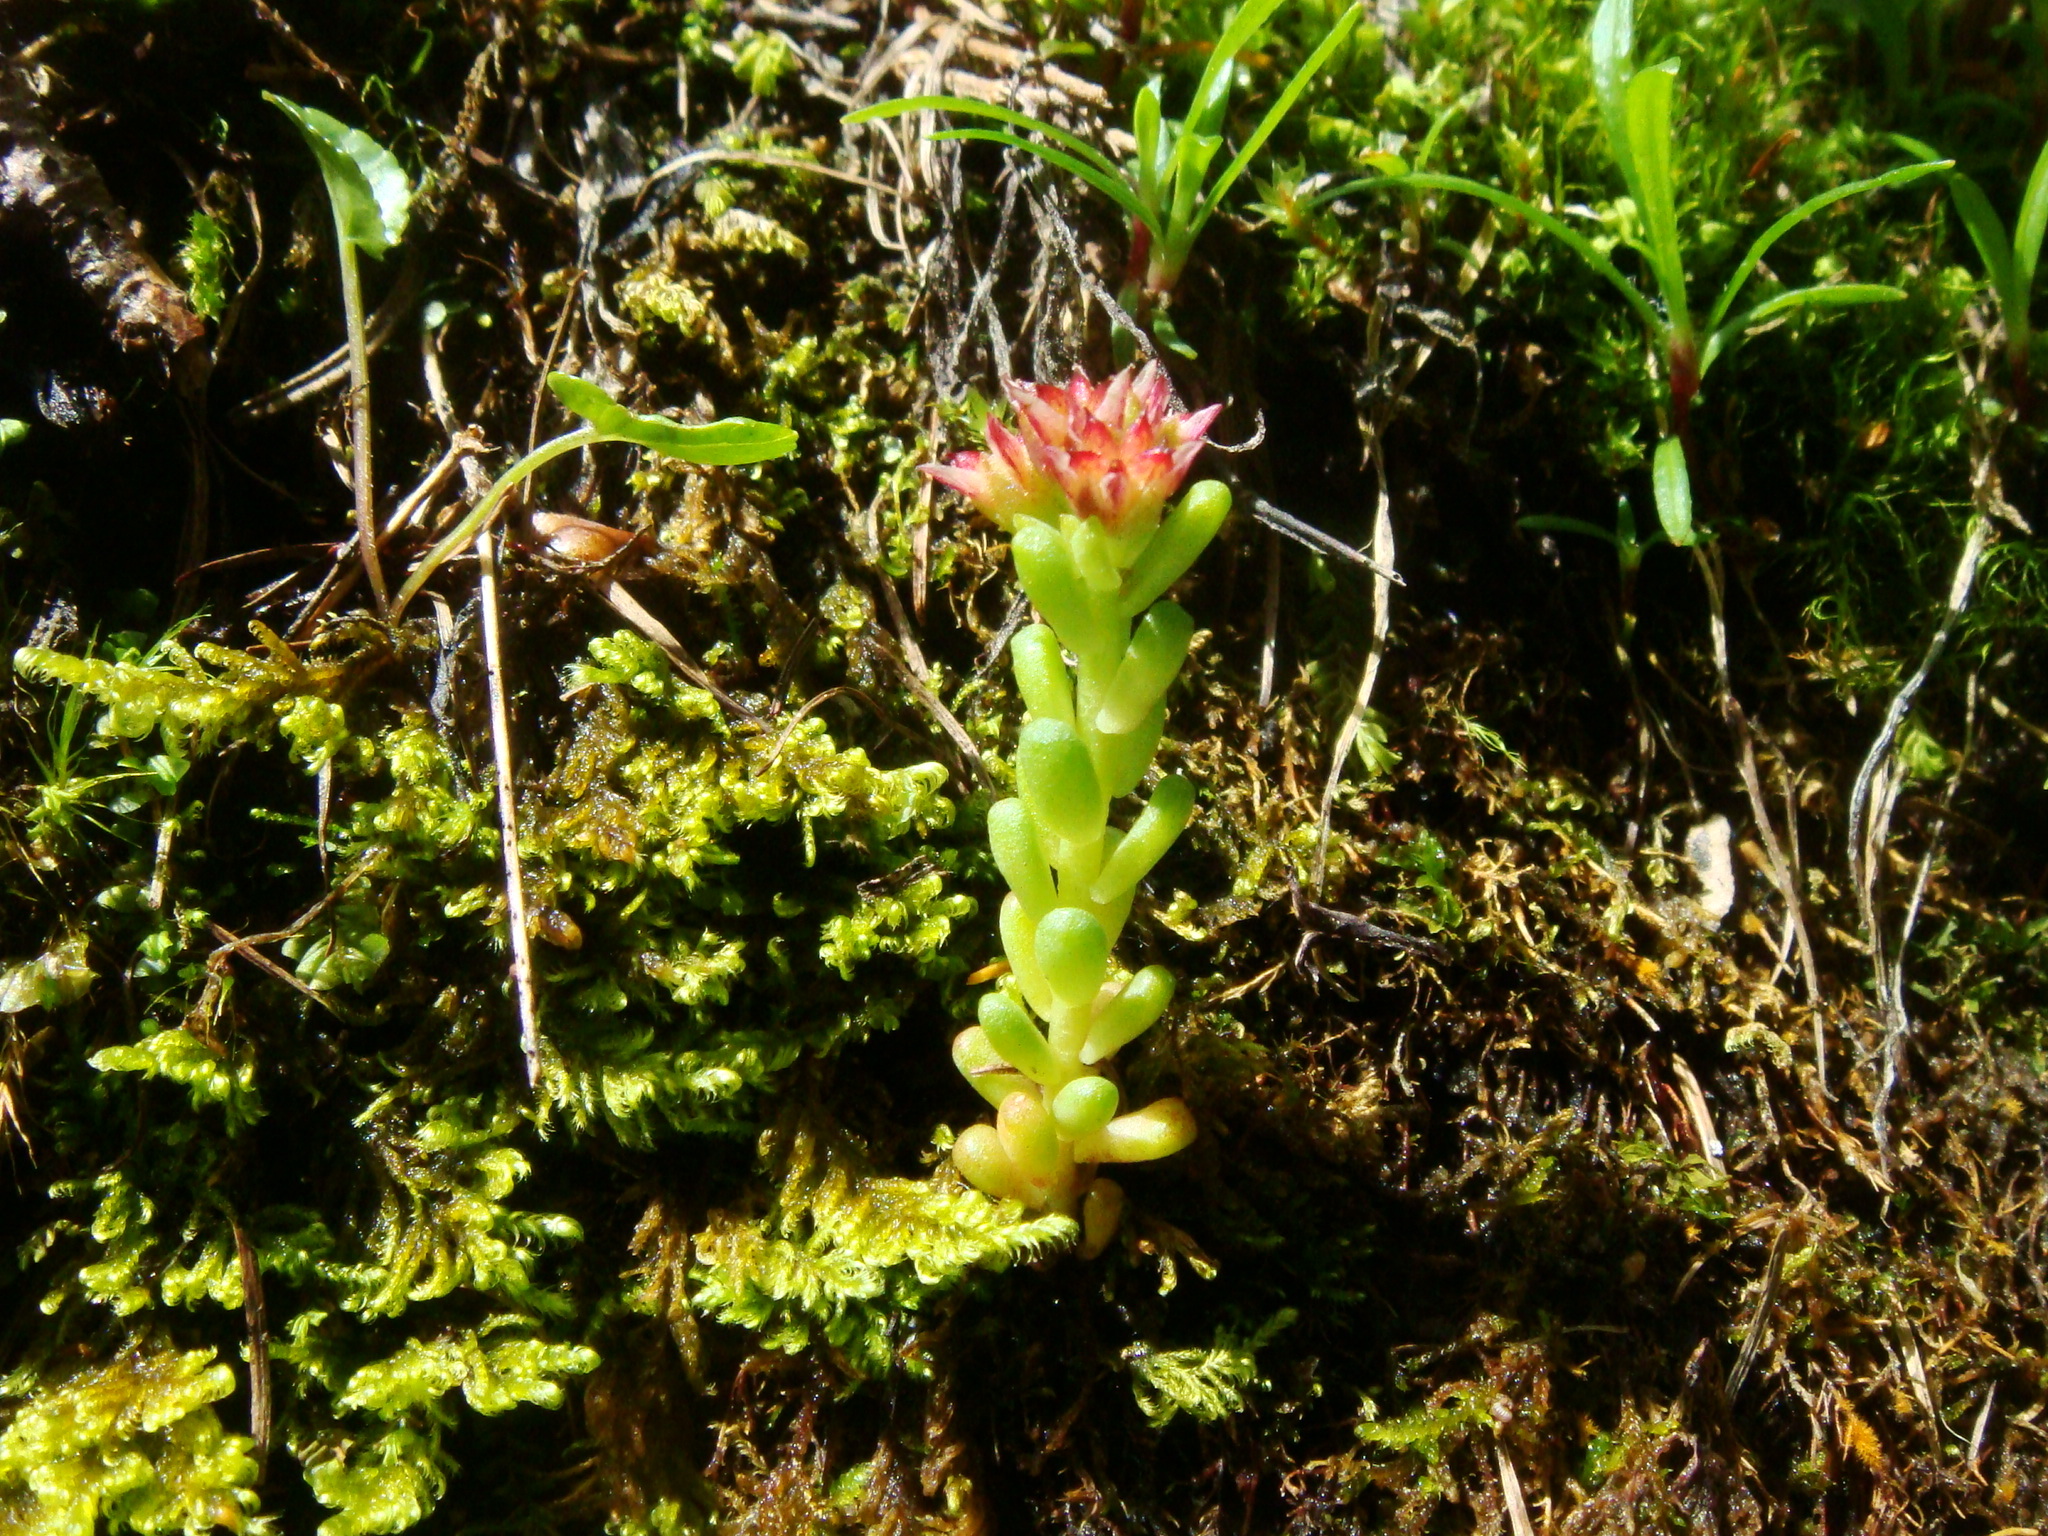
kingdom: Plantae
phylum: Tracheophyta
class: Magnoliopsida
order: Saxifragales
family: Crassulaceae
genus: Sedum
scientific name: Sedum atratum
